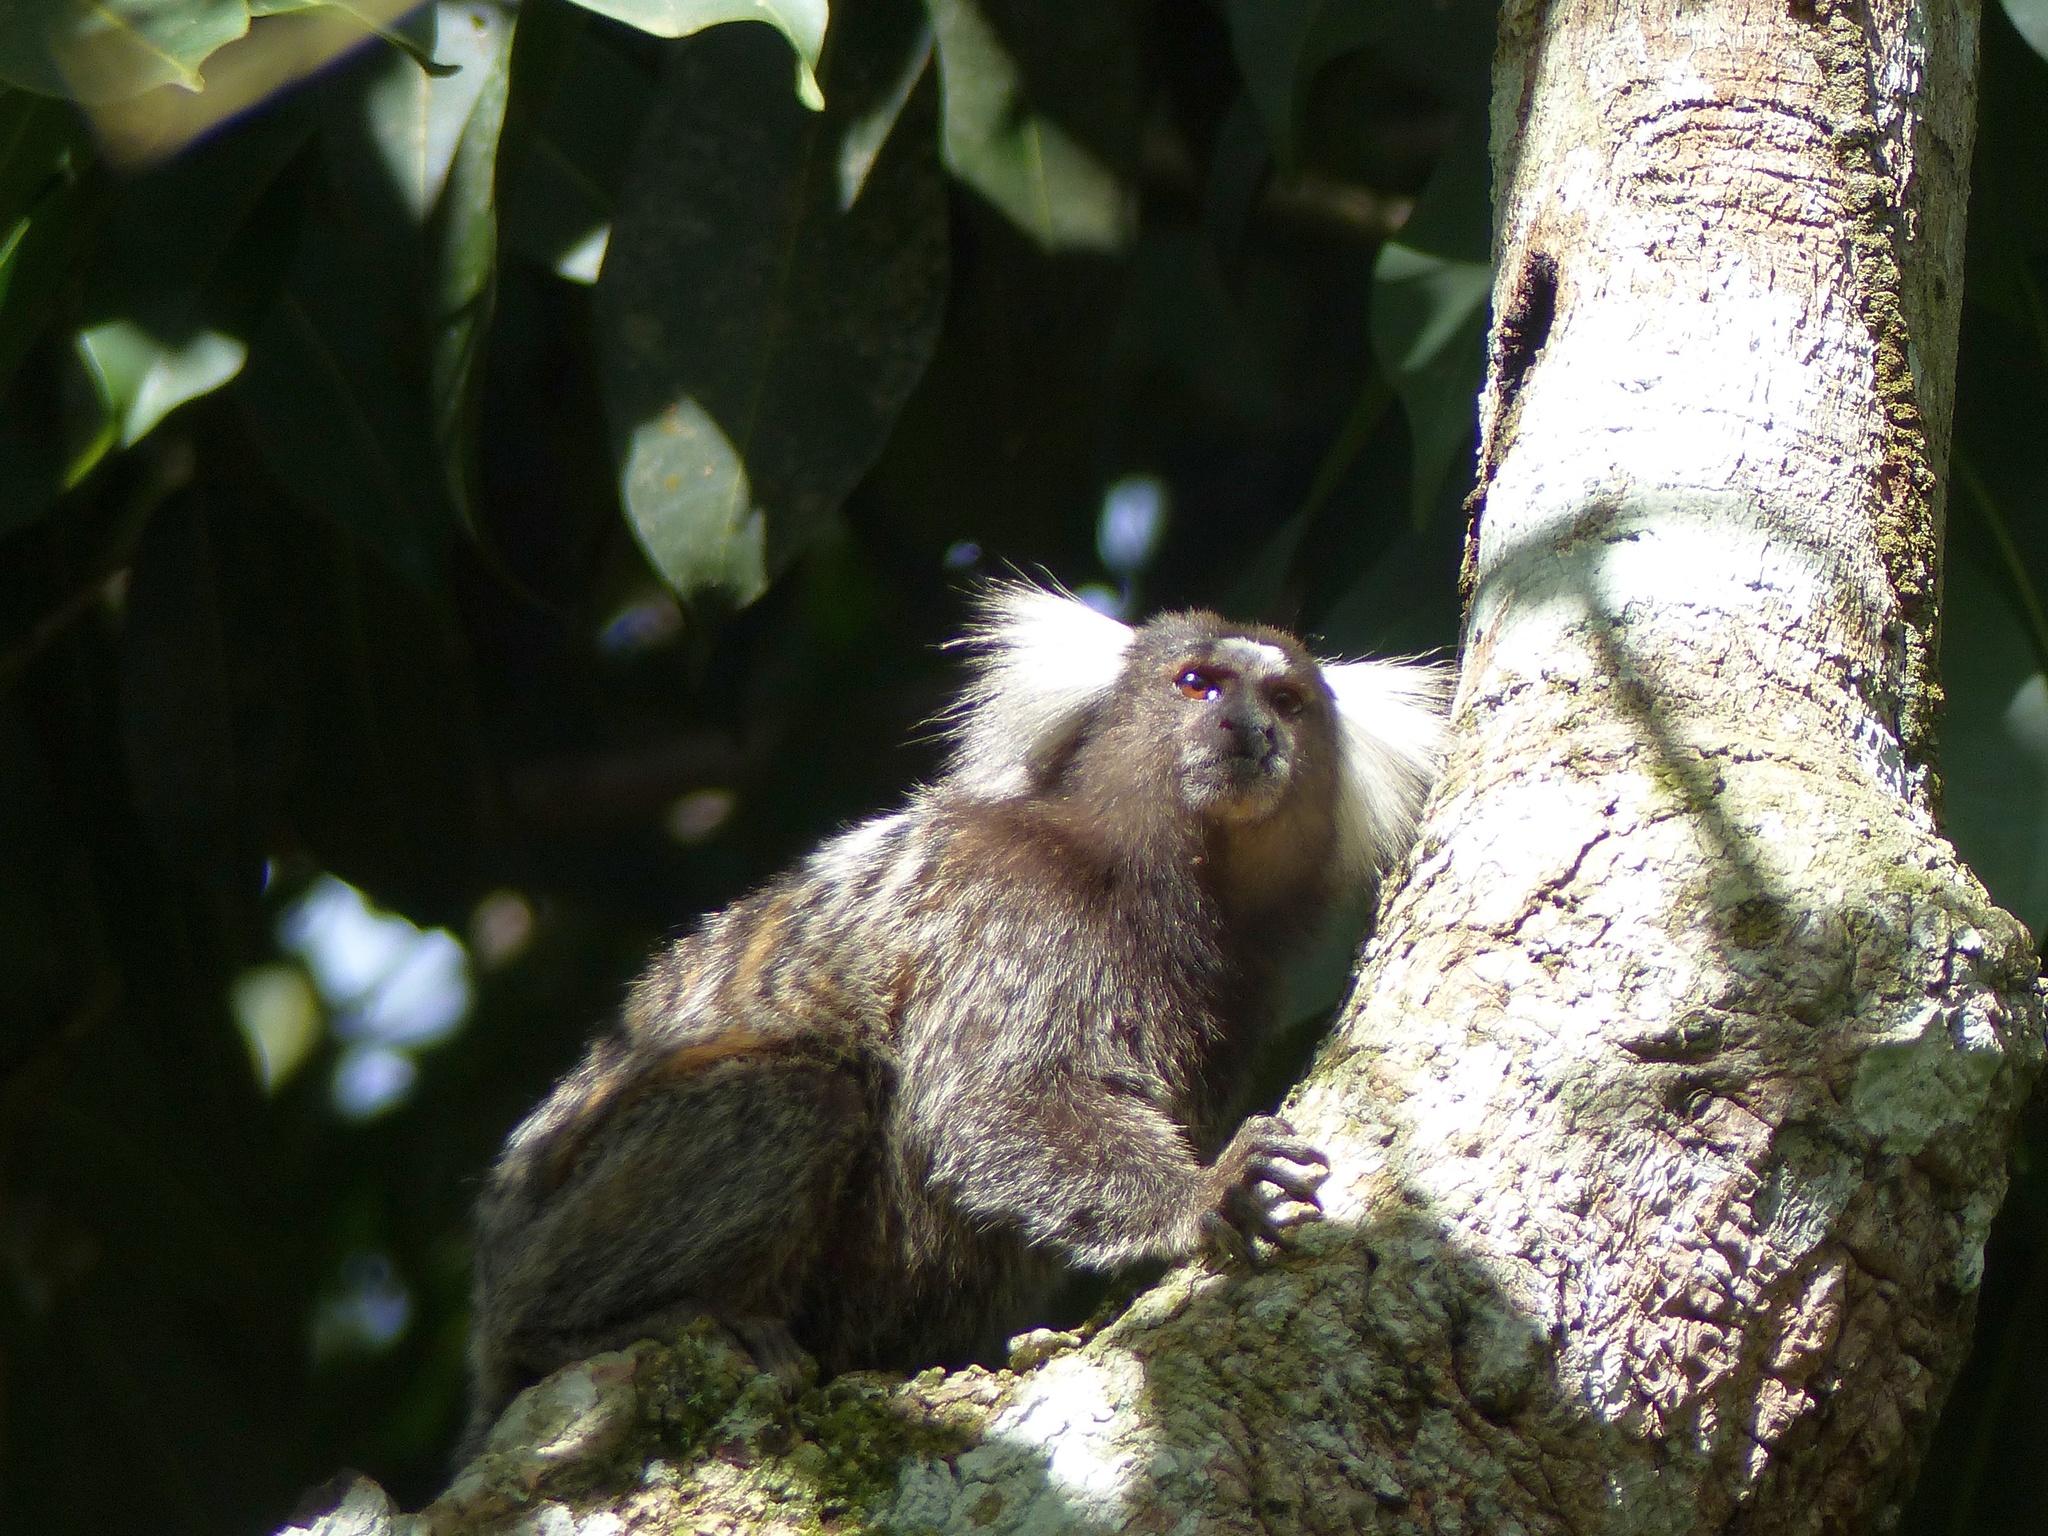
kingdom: Animalia
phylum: Chordata
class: Mammalia
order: Primates
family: Callitrichidae
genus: Callithrix
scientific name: Callithrix jacchus
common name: Common marmoset
